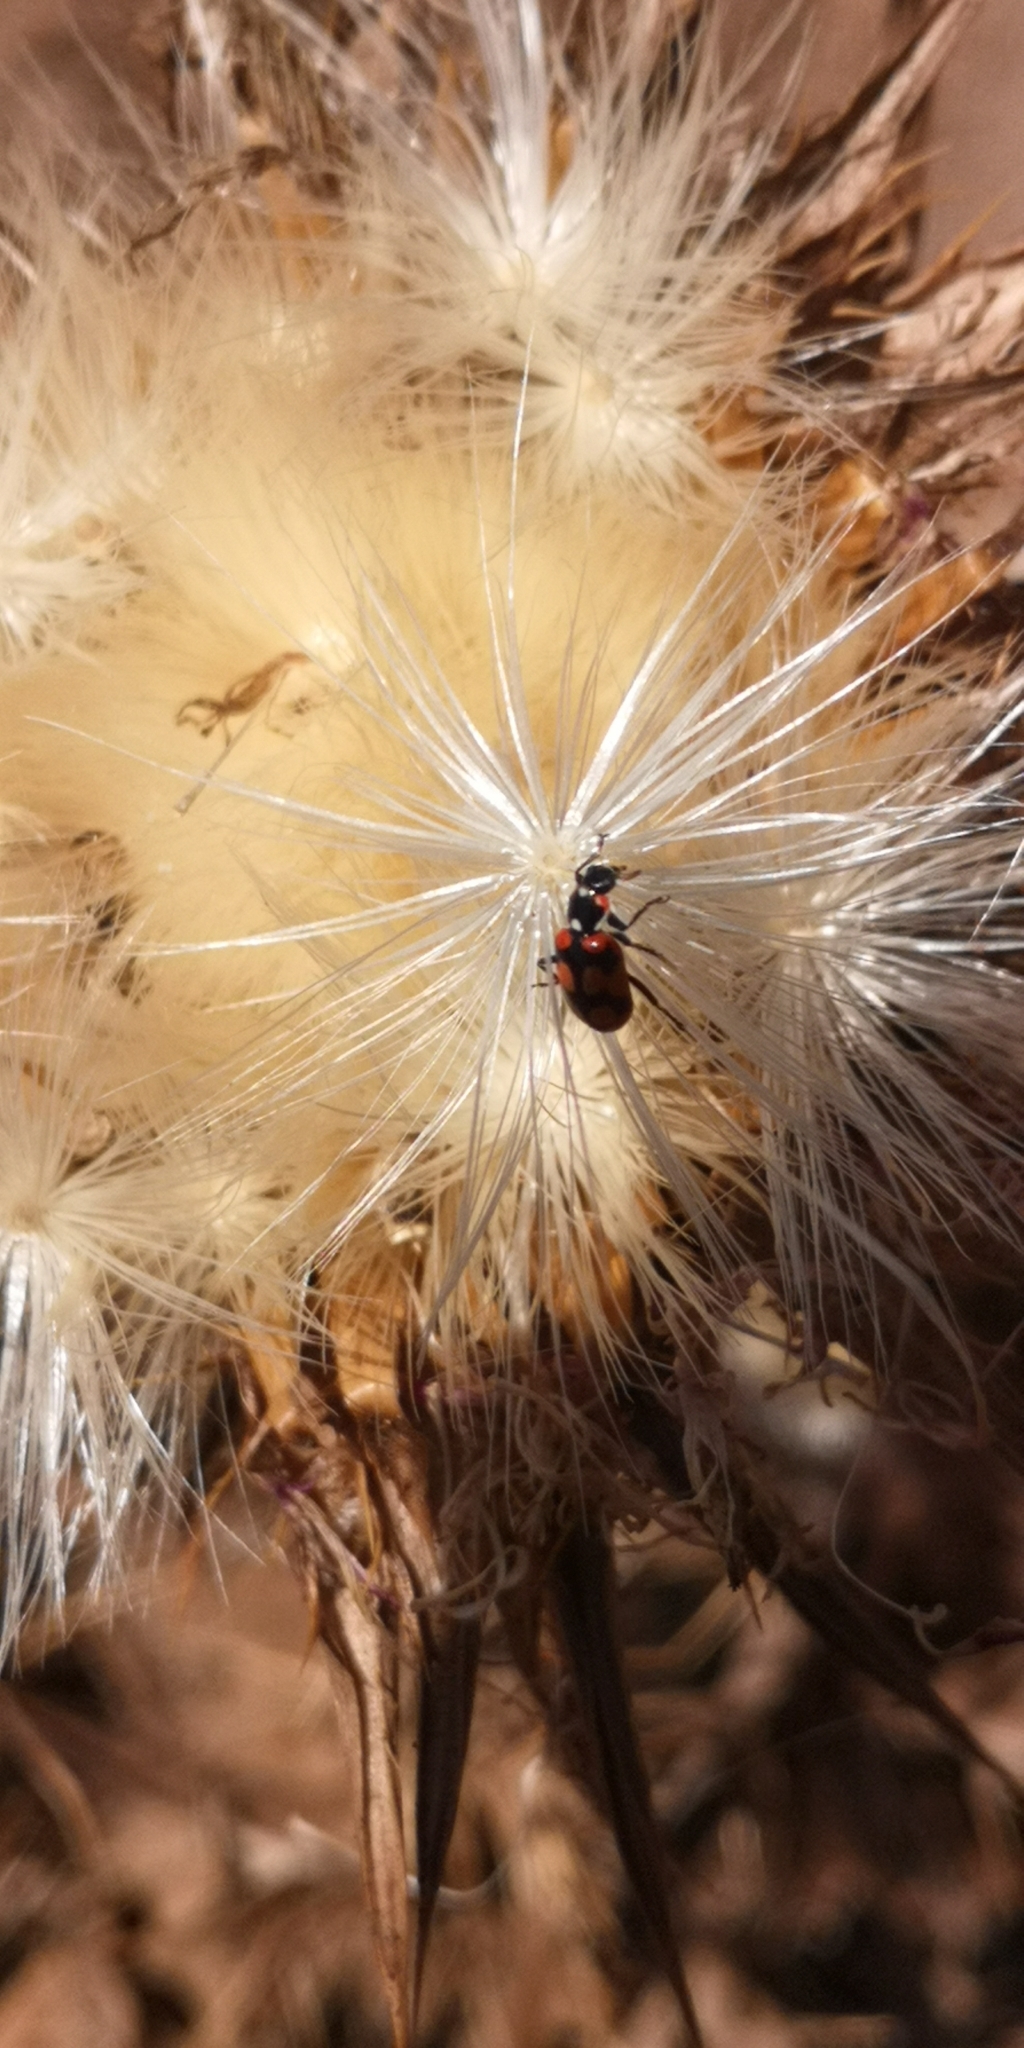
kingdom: Animalia
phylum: Arthropoda
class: Insecta
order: Coleoptera
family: Coccinellidae
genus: Eriopis
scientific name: Eriopis chilensis
